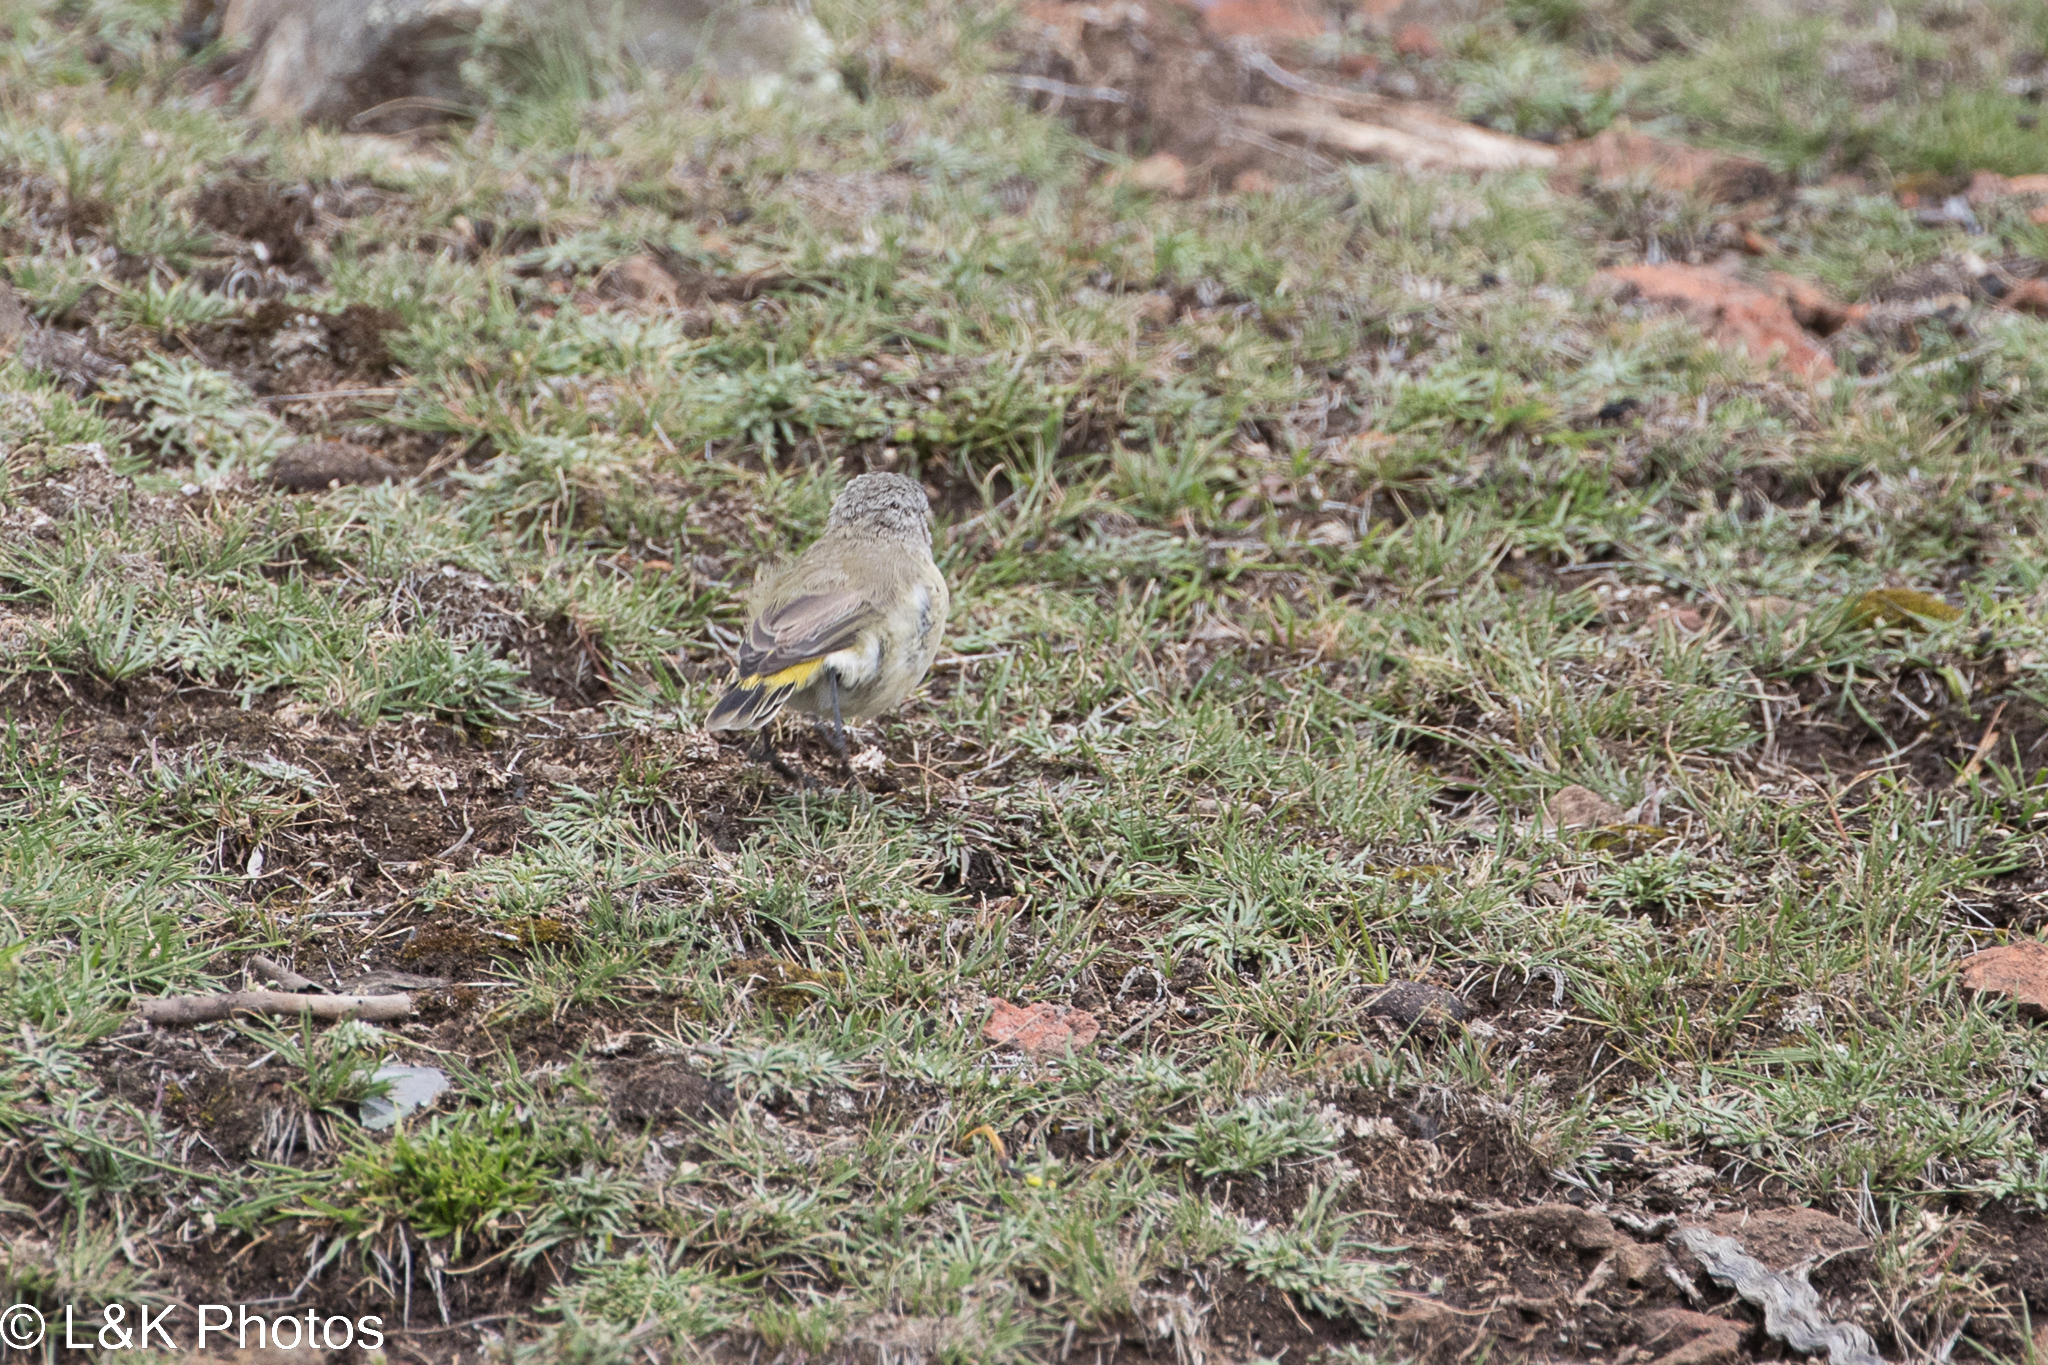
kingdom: Animalia
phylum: Chordata
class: Aves
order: Passeriformes
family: Acanthizidae
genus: Acanthiza
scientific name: Acanthiza chrysorrhoa
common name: Yellow-rumped thornbill
